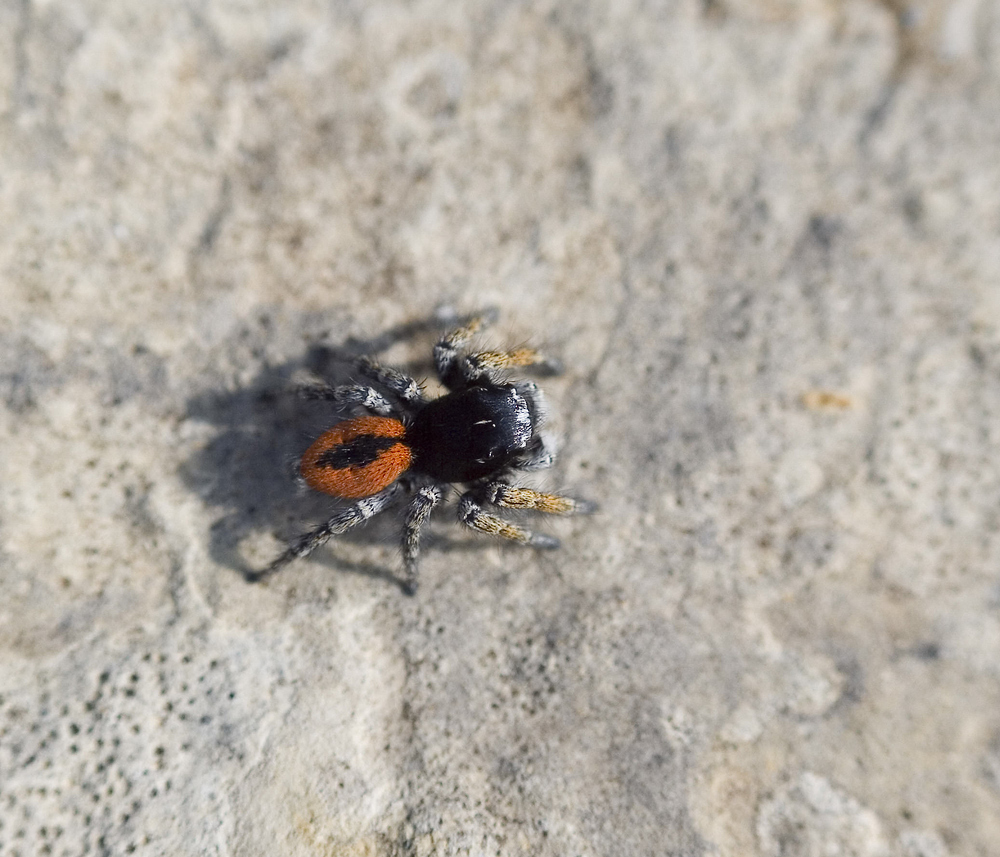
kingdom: Animalia
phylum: Arthropoda
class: Arachnida
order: Araneae
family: Salticidae
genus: Philaeus
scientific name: Philaeus chrysops
